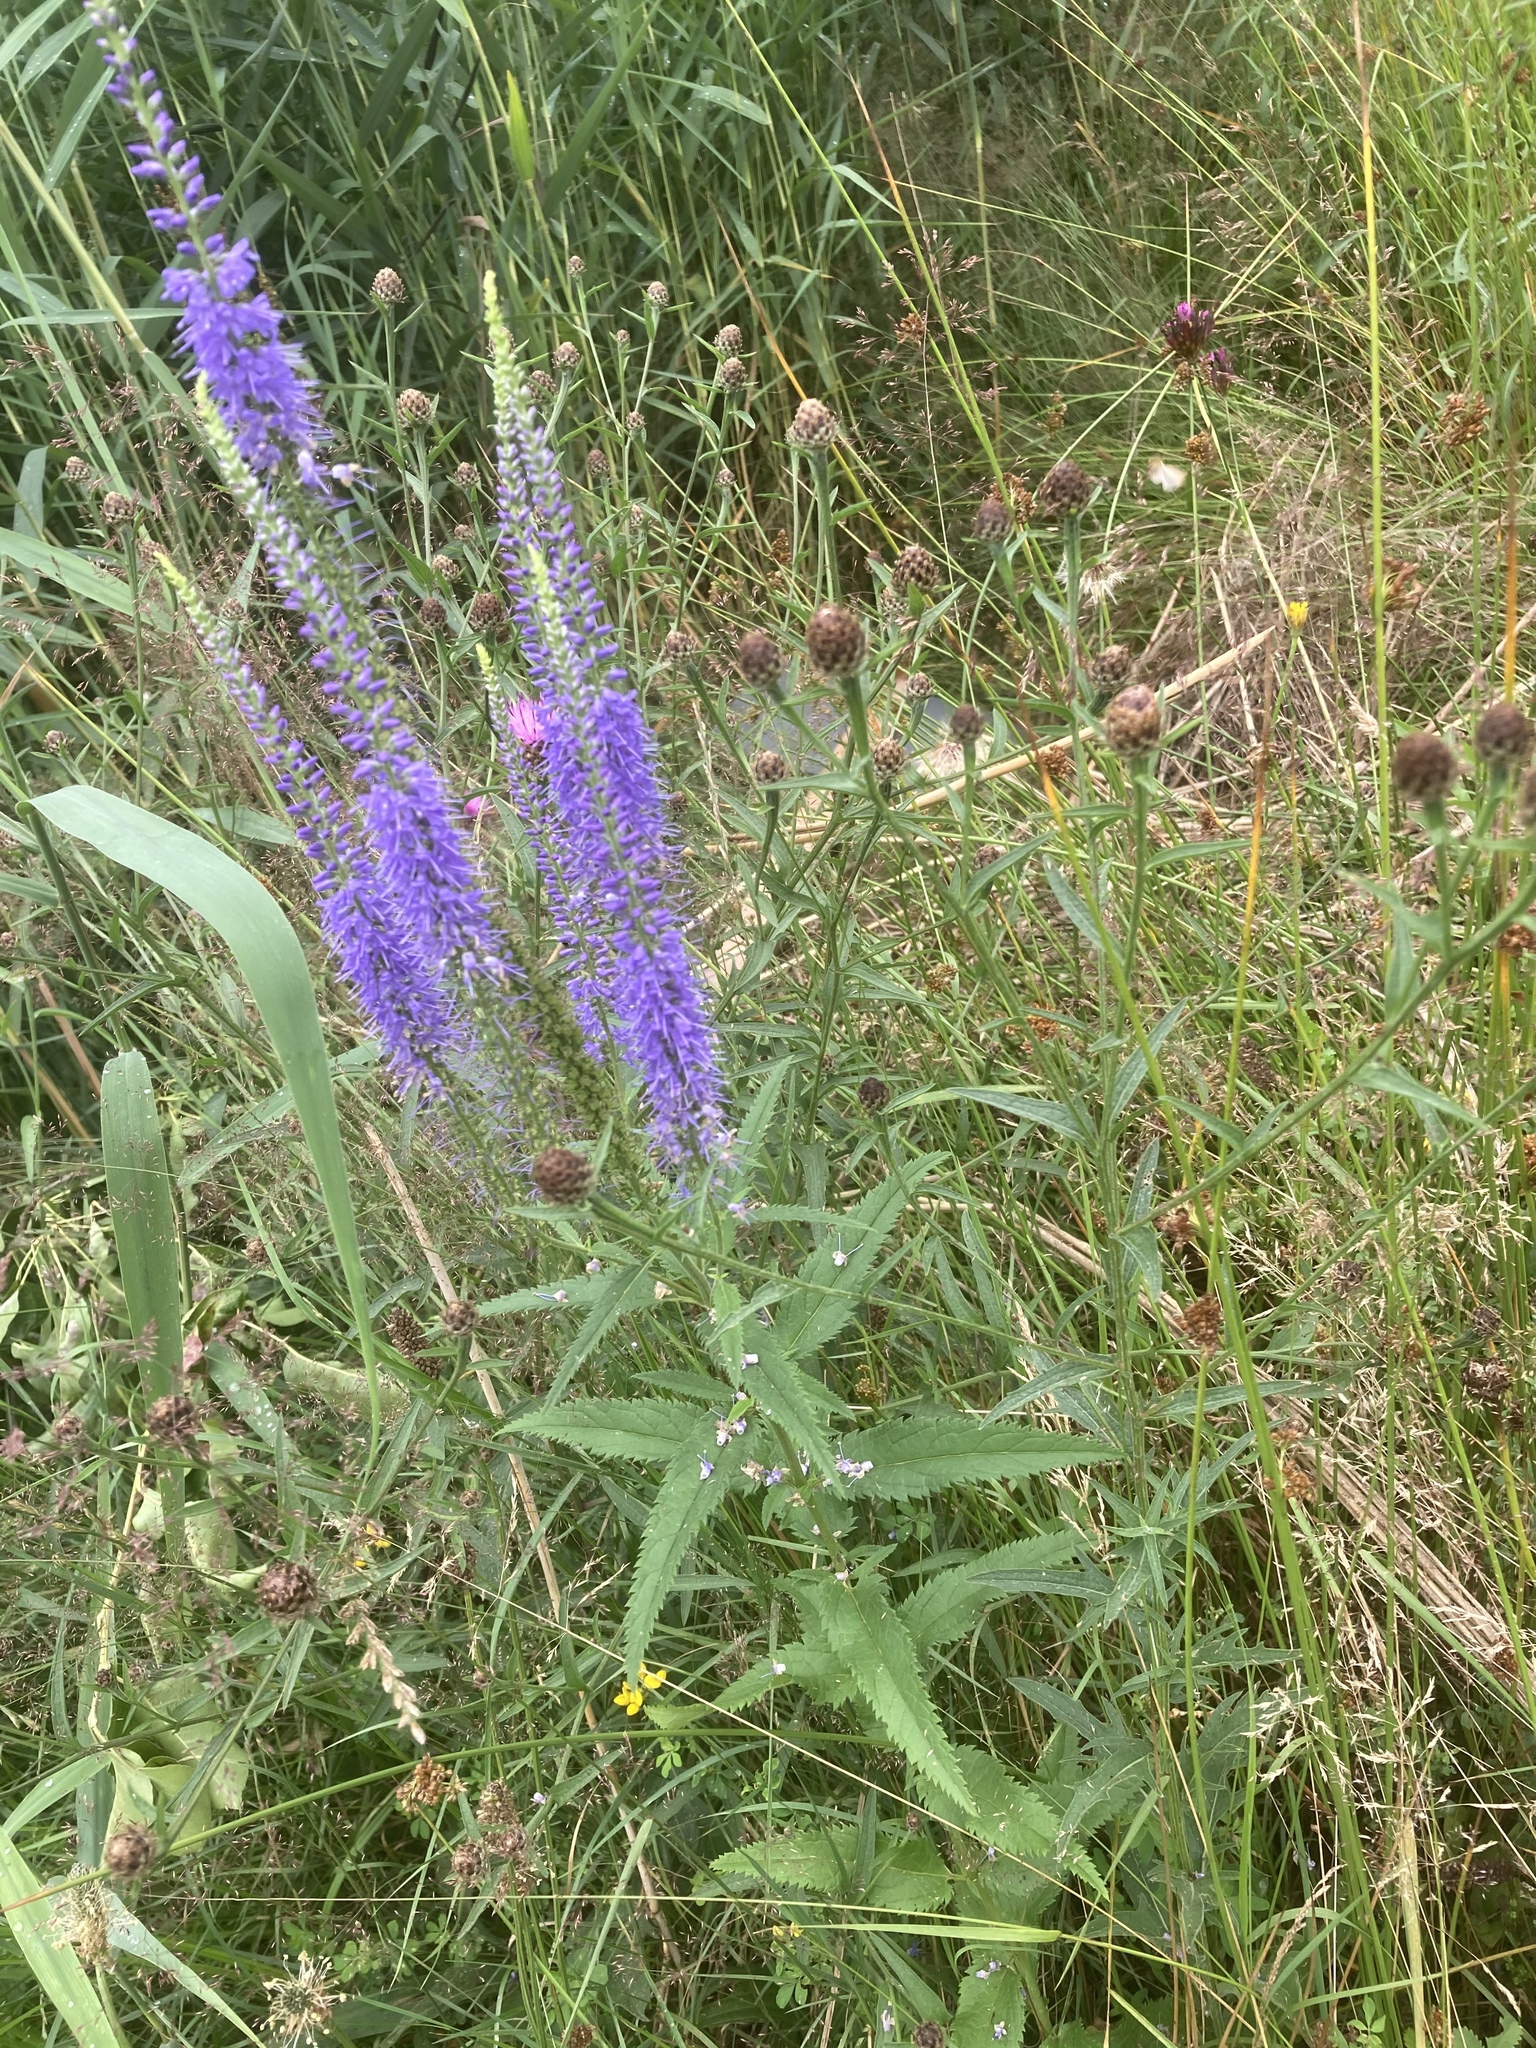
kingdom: Plantae
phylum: Tracheophyta
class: Magnoliopsida
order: Lamiales
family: Plantaginaceae
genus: Veronica
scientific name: Veronica longifolia
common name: Garden speedwell
